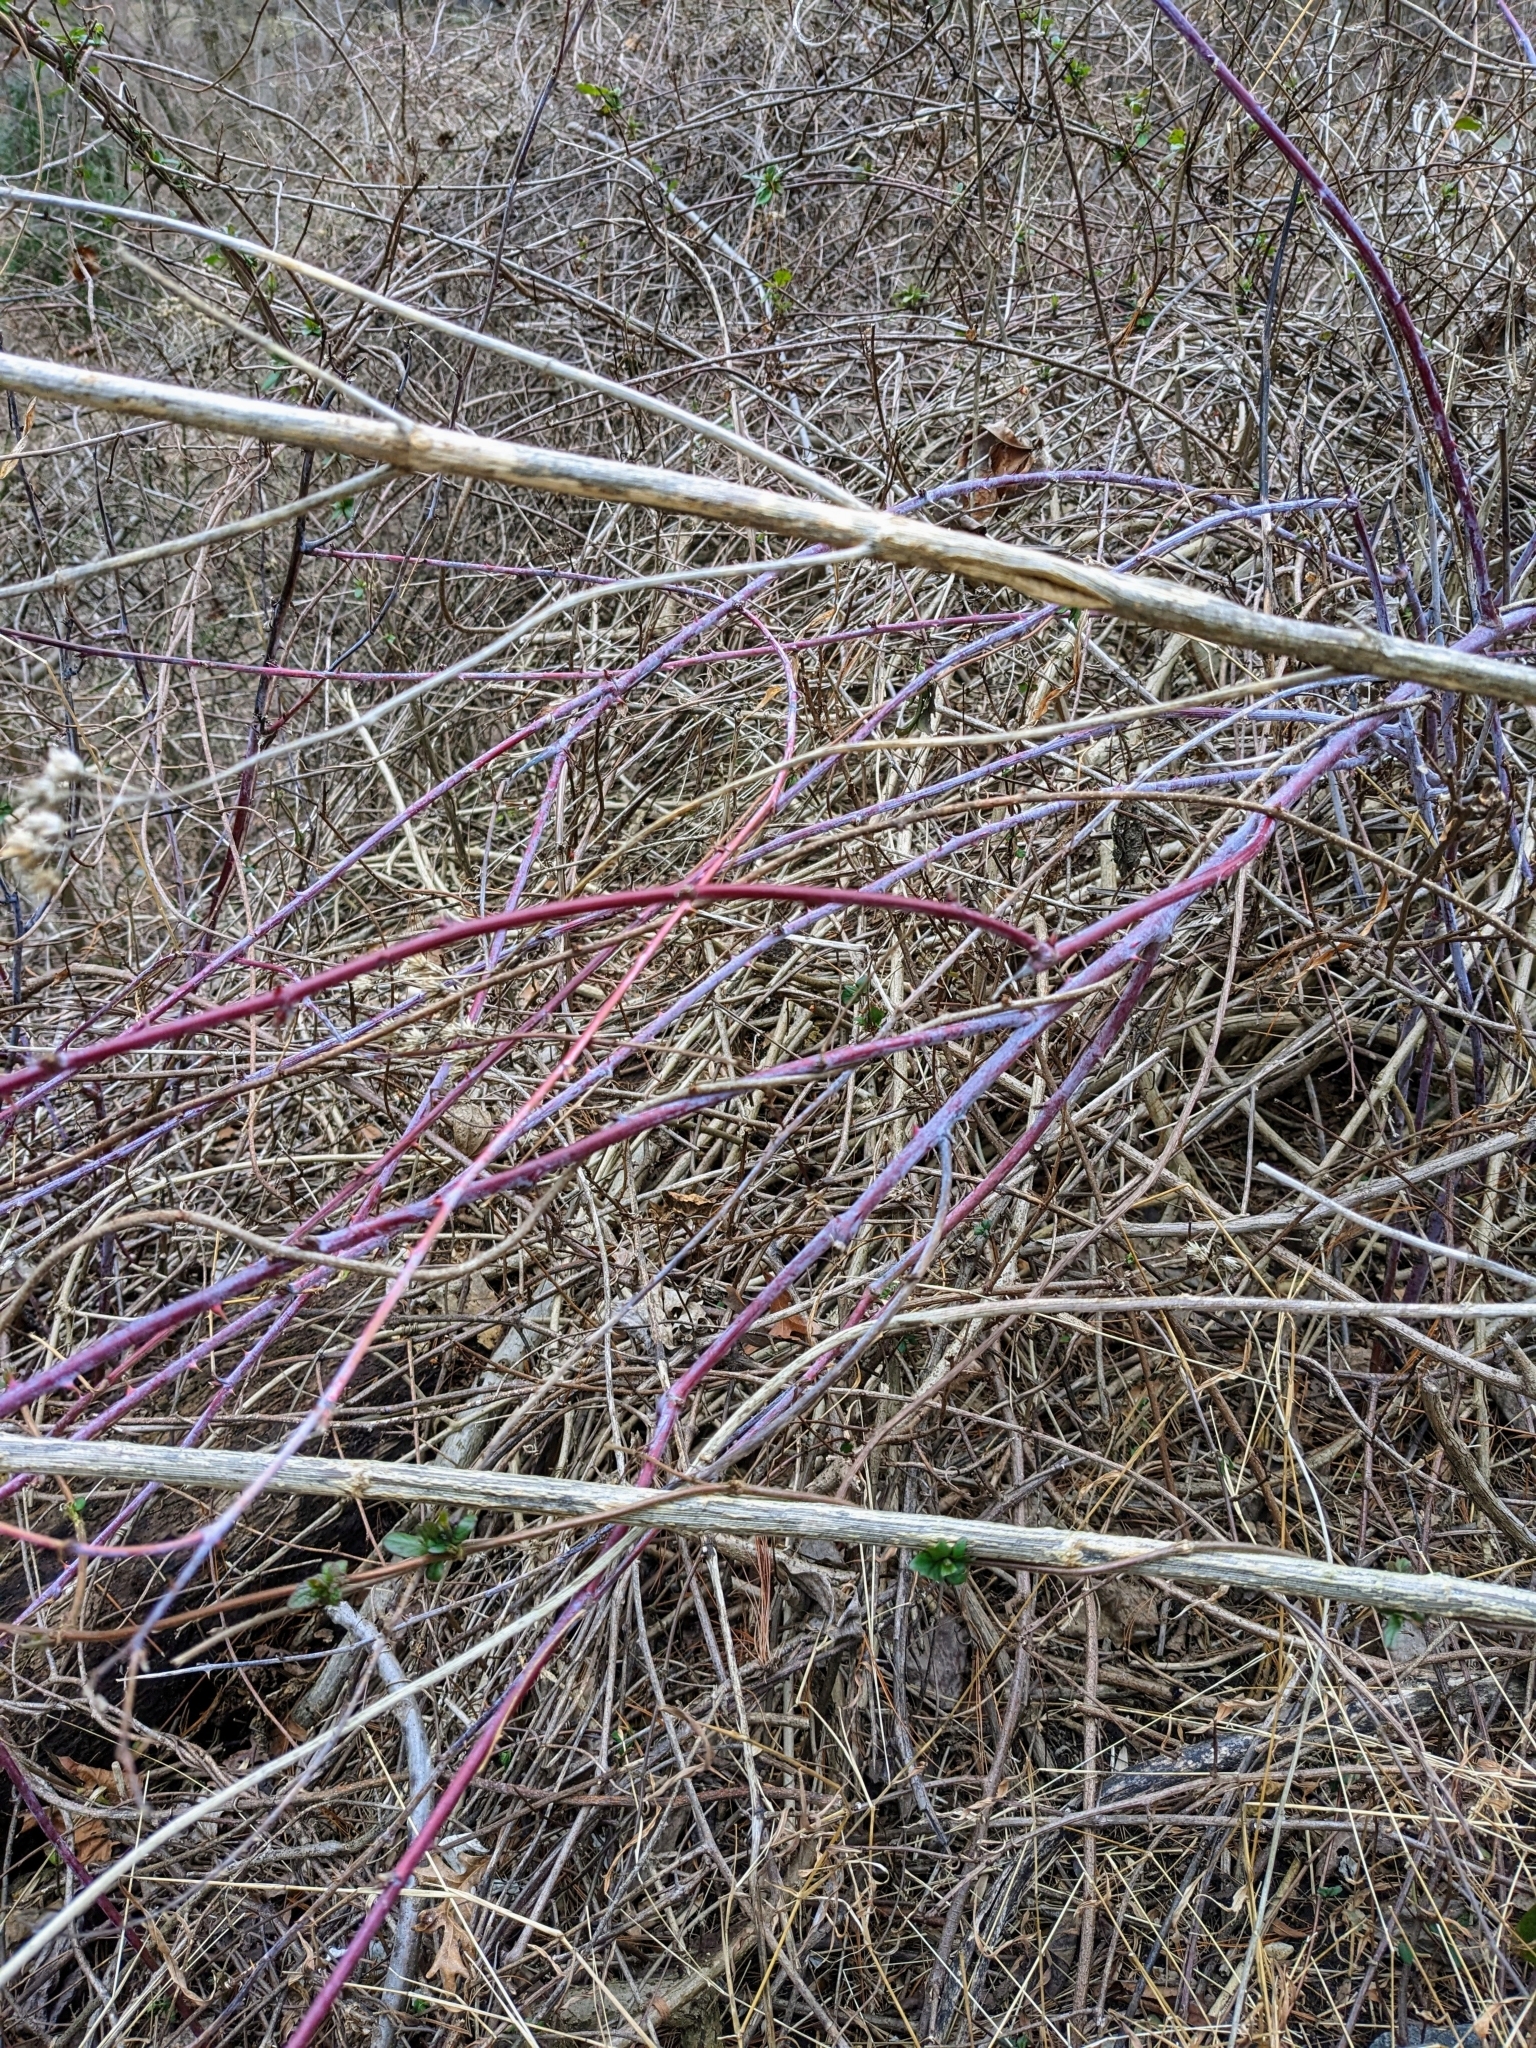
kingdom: Plantae
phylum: Tracheophyta
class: Magnoliopsida
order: Rosales
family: Rosaceae
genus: Rubus
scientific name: Rubus occidentalis
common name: Black raspberry
